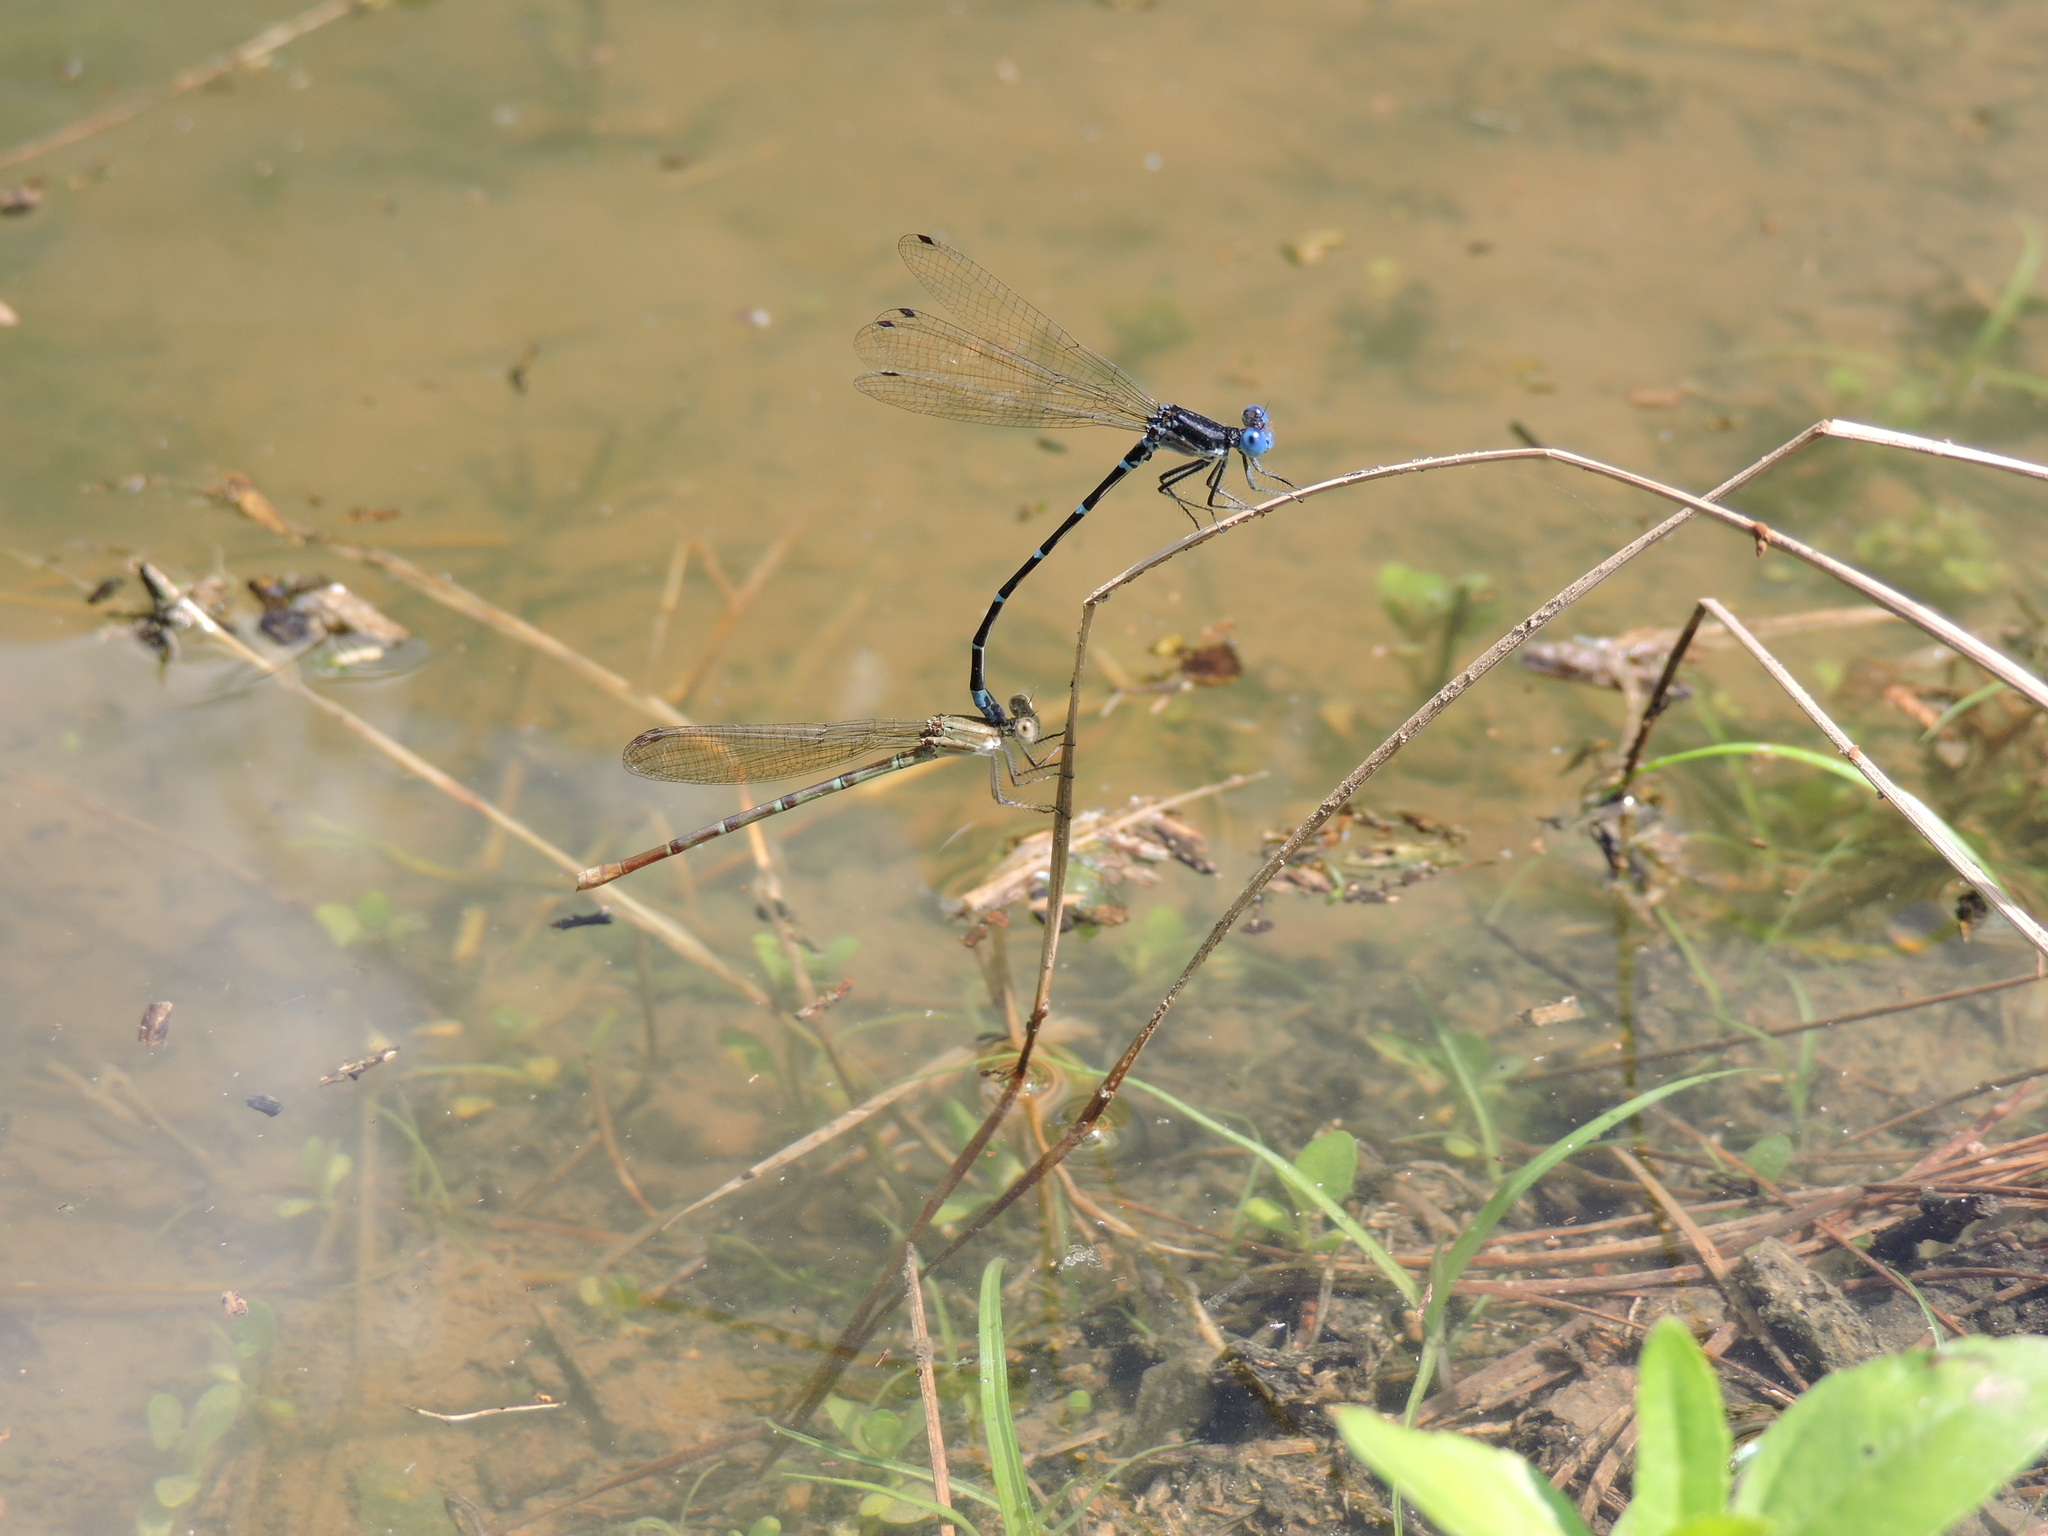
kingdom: Animalia
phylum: Arthropoda
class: Insecta
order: Odonata
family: Coenagrionidae
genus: Argia
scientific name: Argia sedula
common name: Blue-ringed dancer
